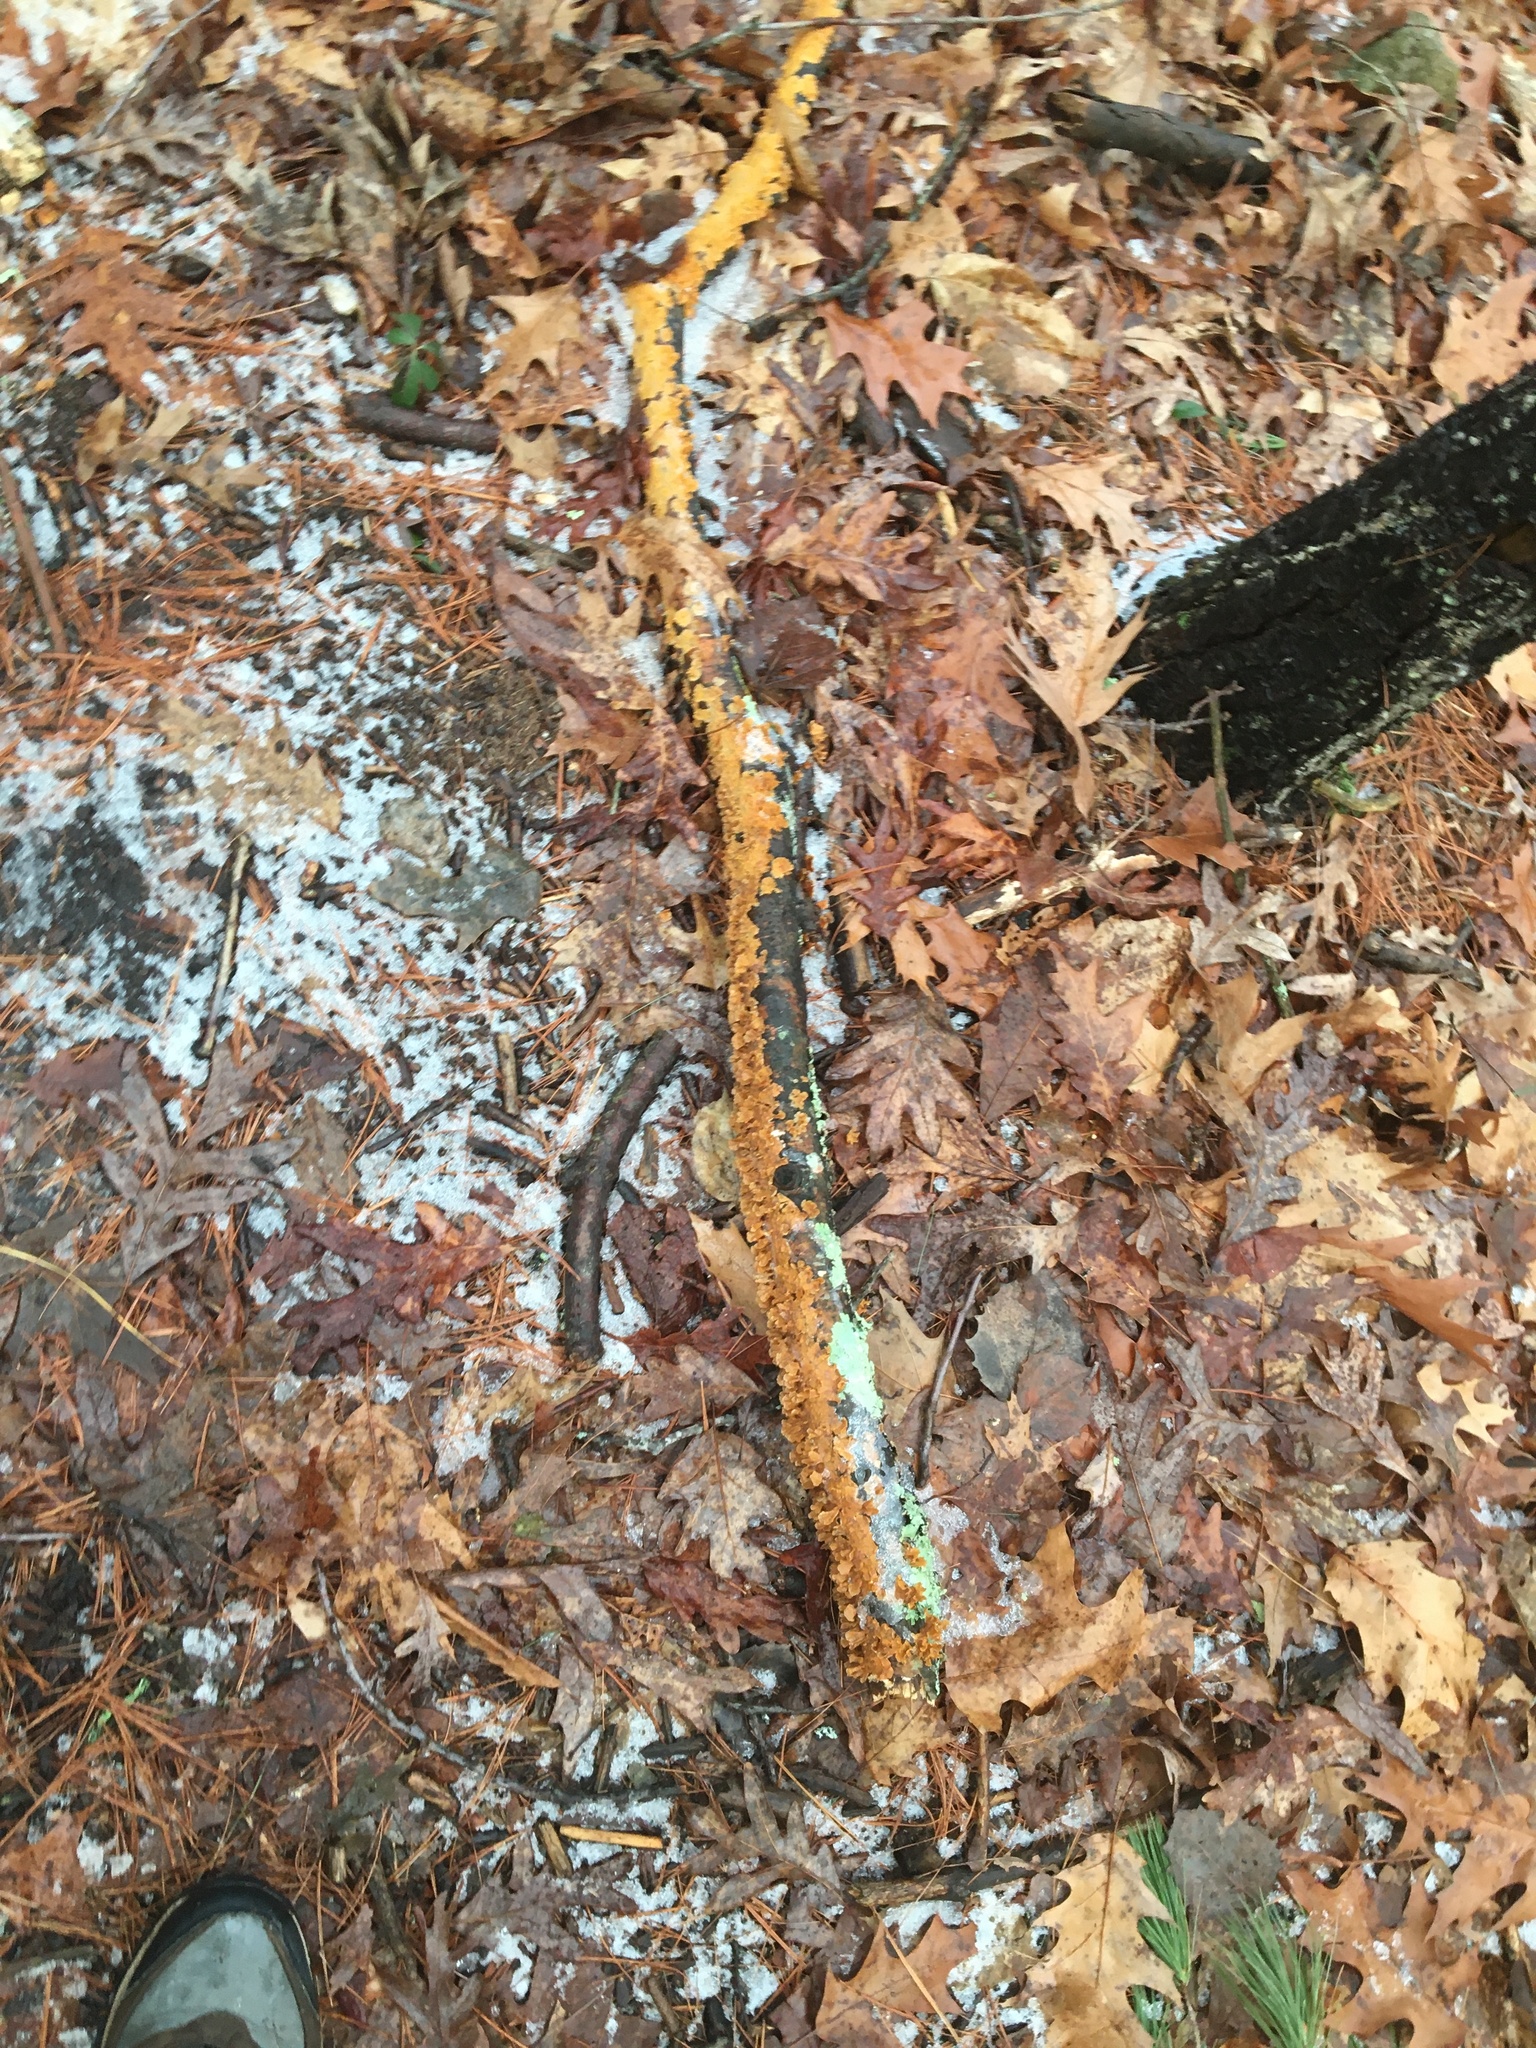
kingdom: Fungi
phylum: Basidiomycota
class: Agaricomycetes
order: Russulales
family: Stereaceae
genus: Stereum
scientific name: Stereum complicatum
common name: Crowded parchment
